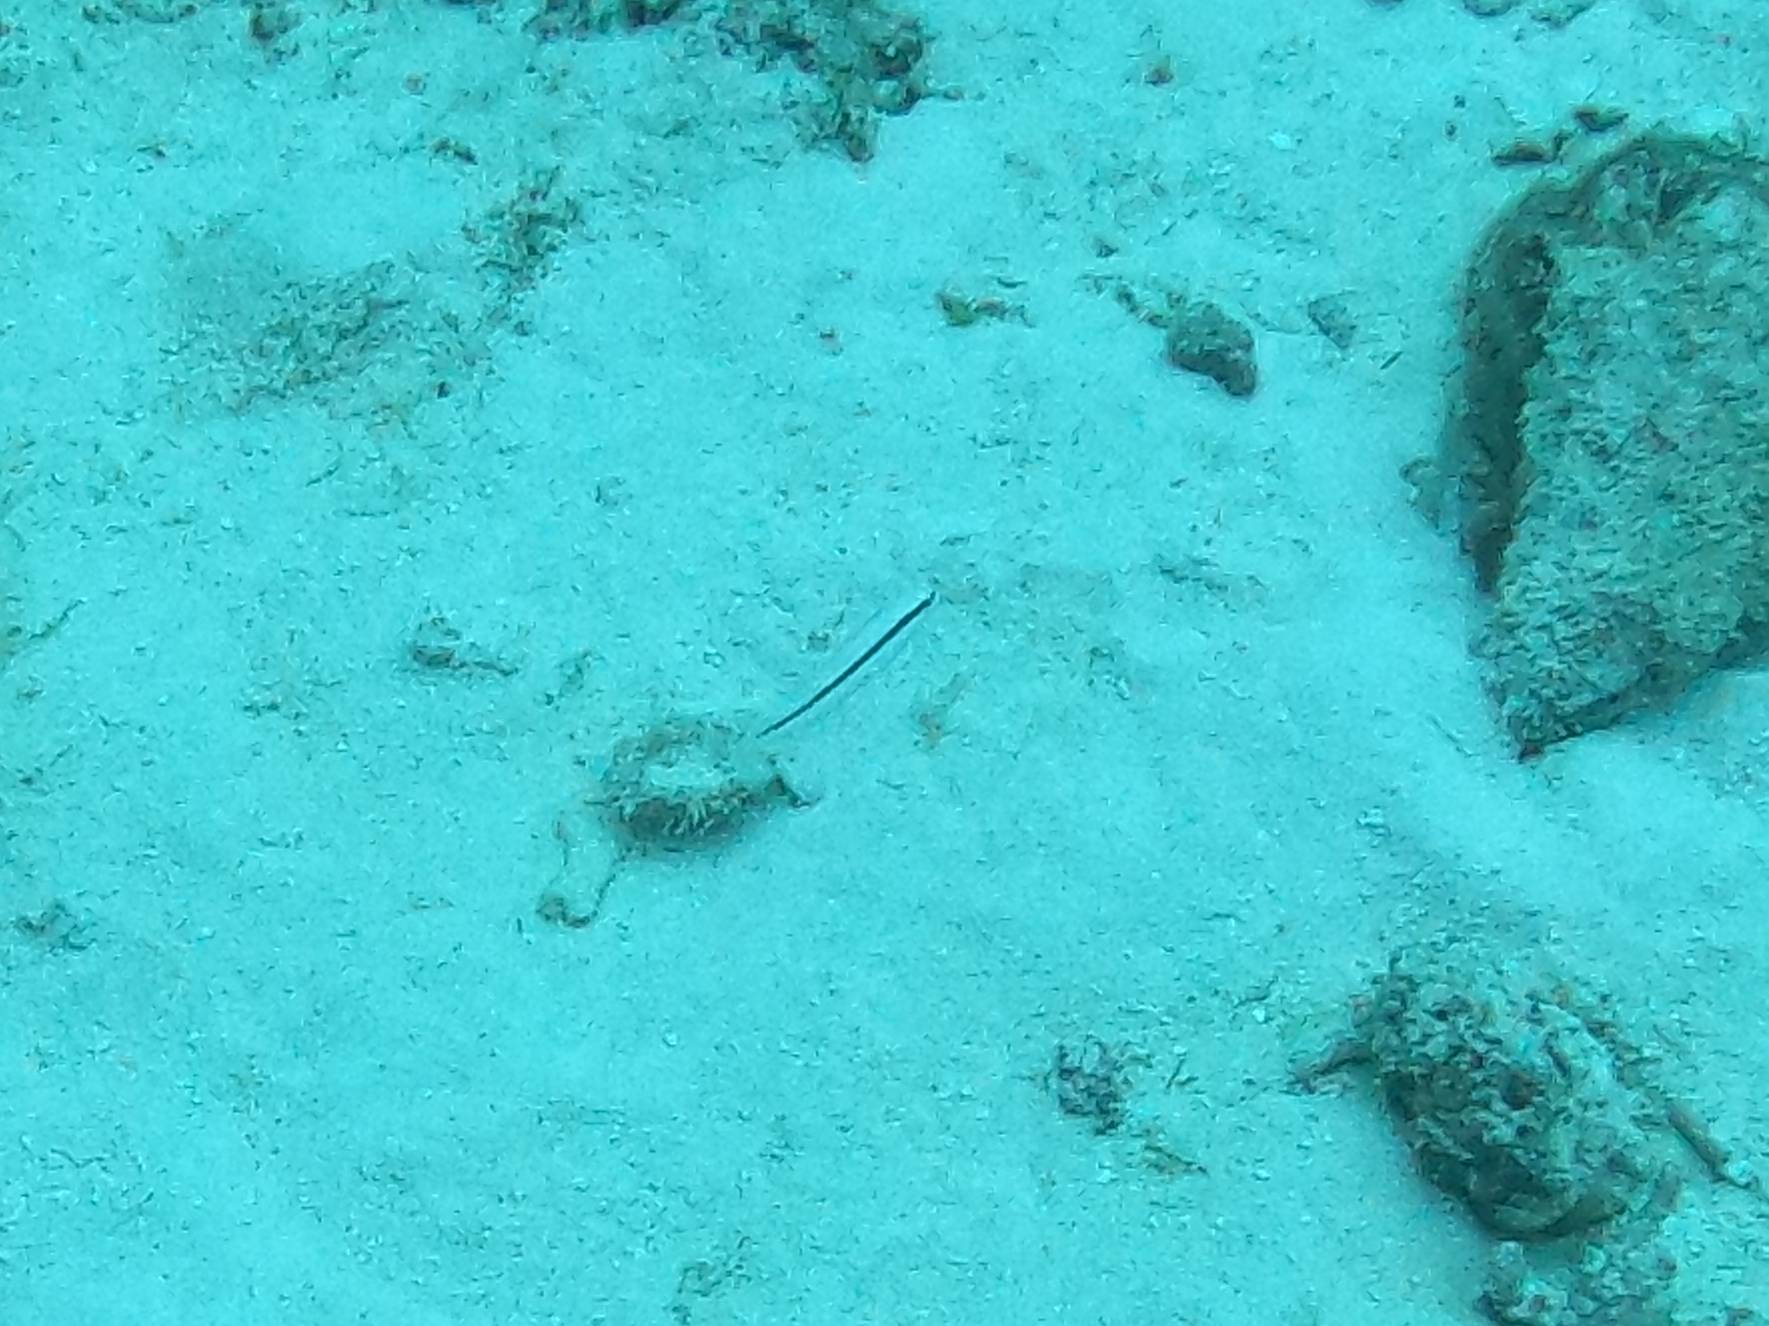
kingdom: Animalia
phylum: Chordata
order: Perciformes
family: Labridae
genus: Halichoeres
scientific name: Halichoeres bivittatus
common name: Slippery dick
